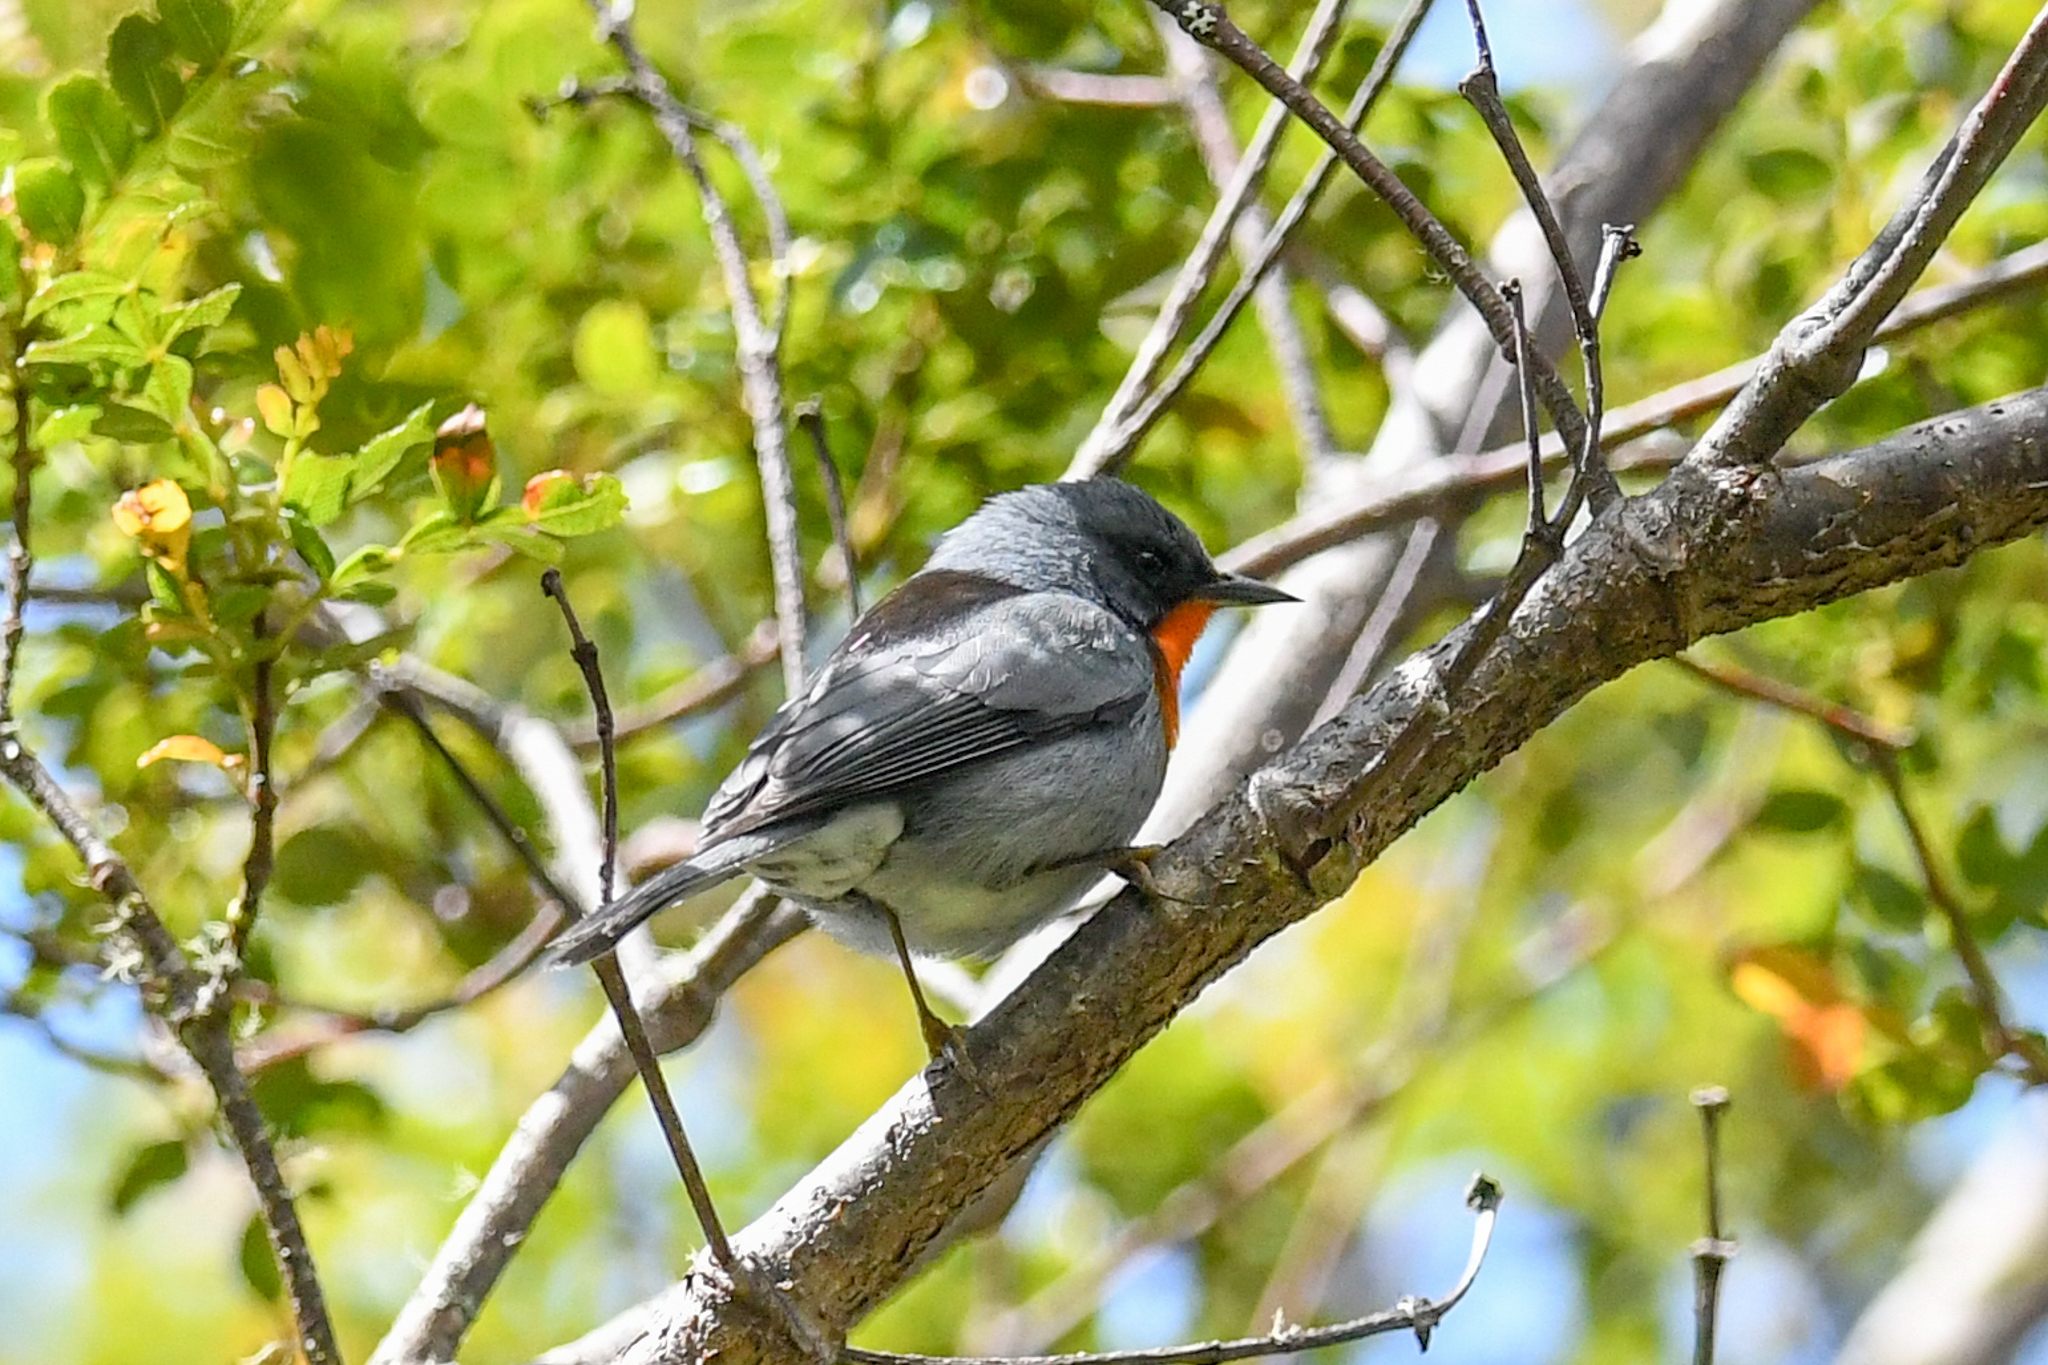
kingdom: Animalia
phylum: Chordata
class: Aves
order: Passeriformes
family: Parulidae
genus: Oreothlypis
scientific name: Oreothlypis gutturalis
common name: Flame-throated warbler
